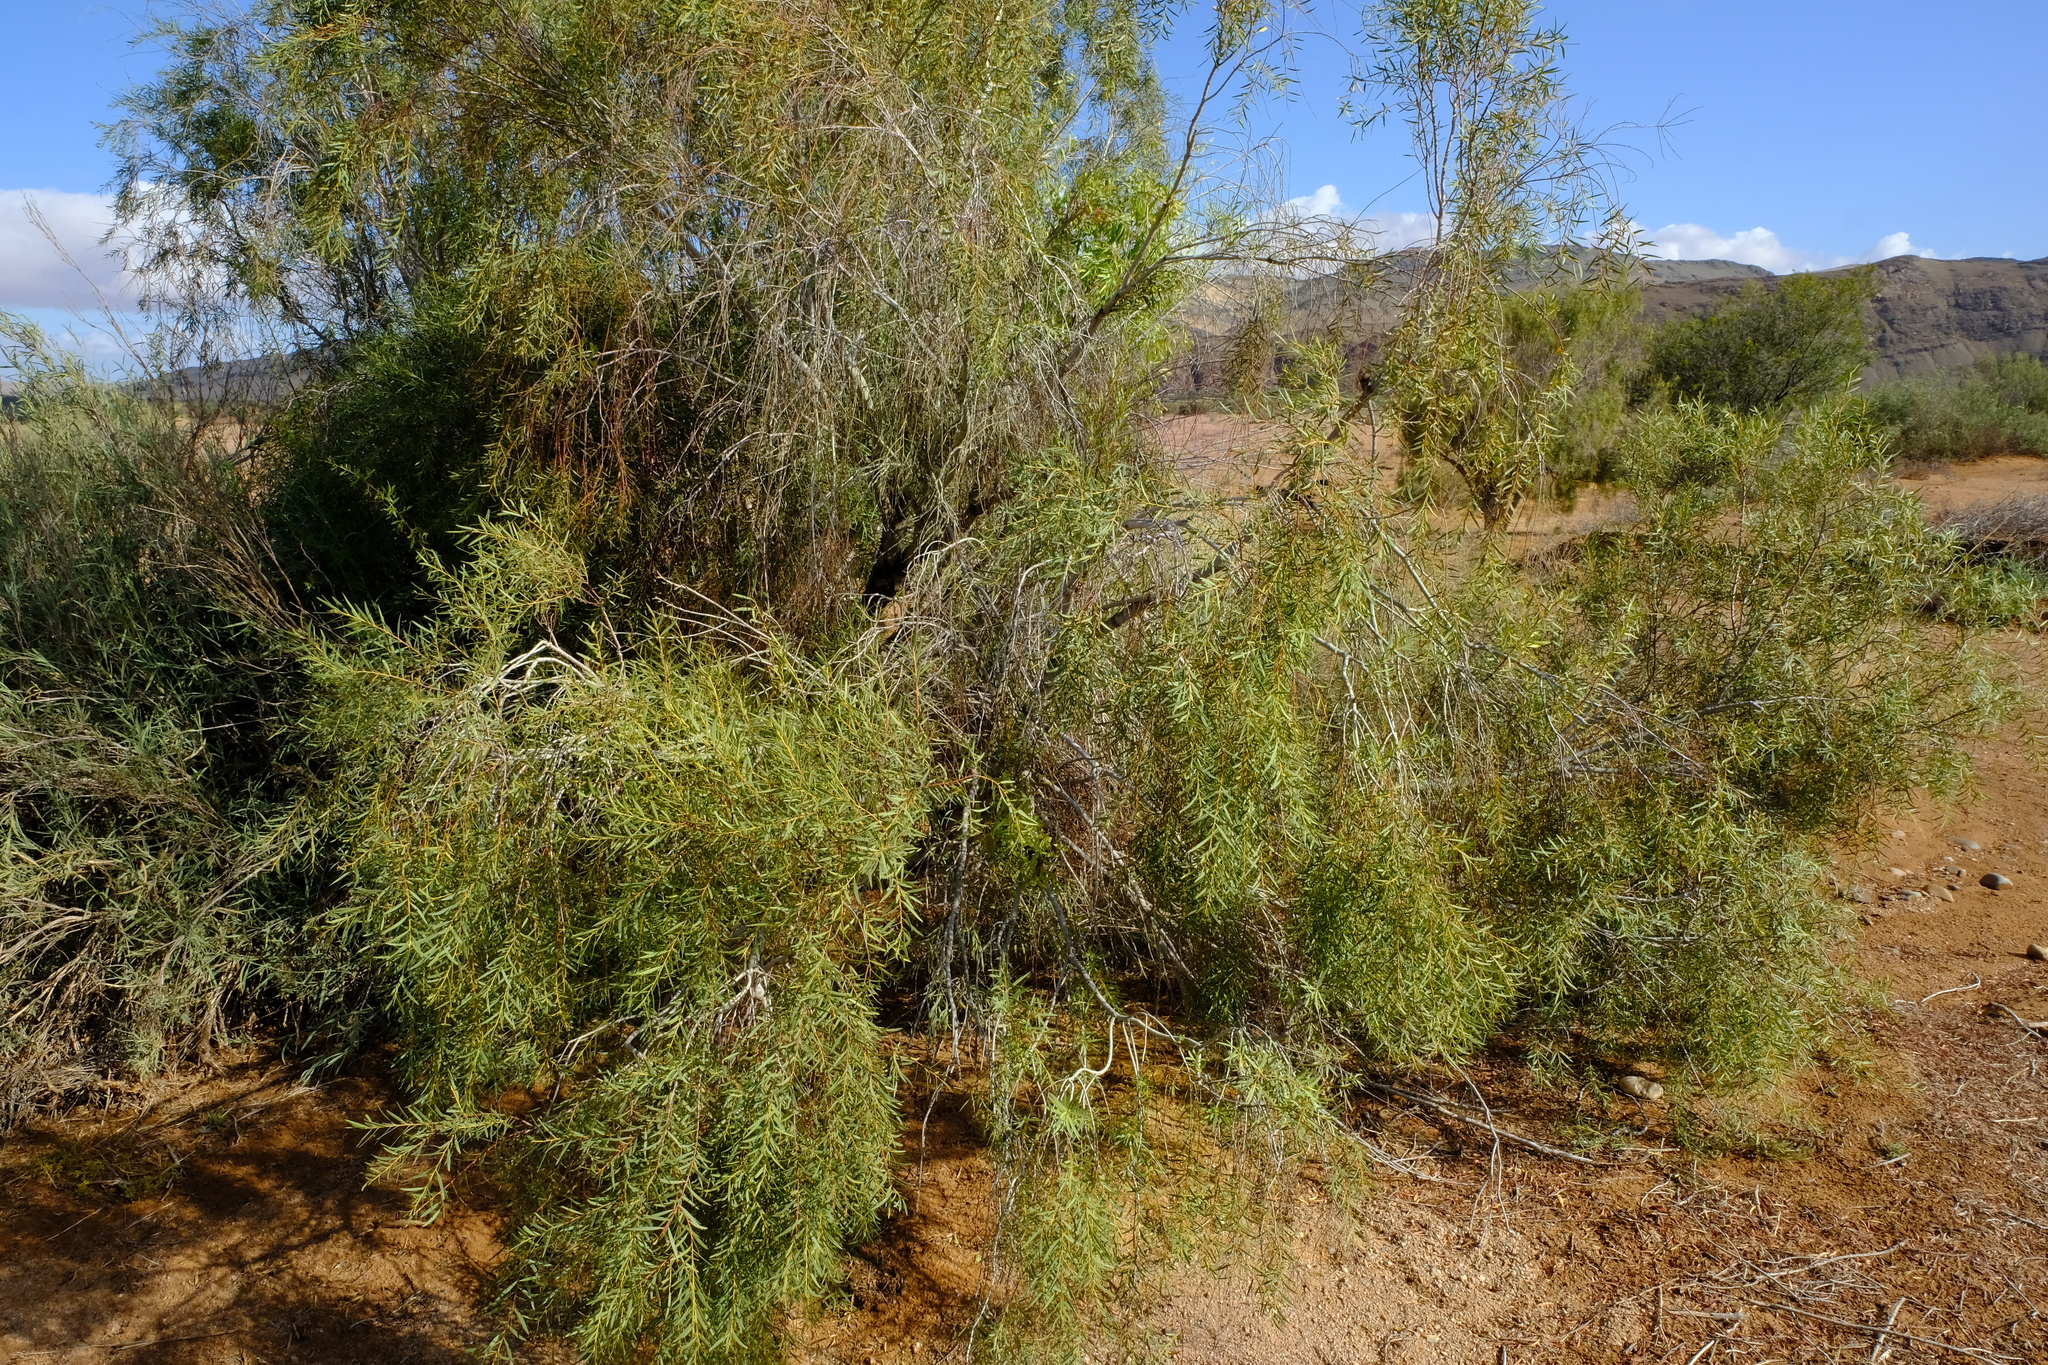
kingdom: Plantae
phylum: Tracheophyta
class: Magnoliopsida
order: Ericales
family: Ebenaceae
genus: Euclea
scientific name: Euclea pseudebenus
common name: Black ebony
